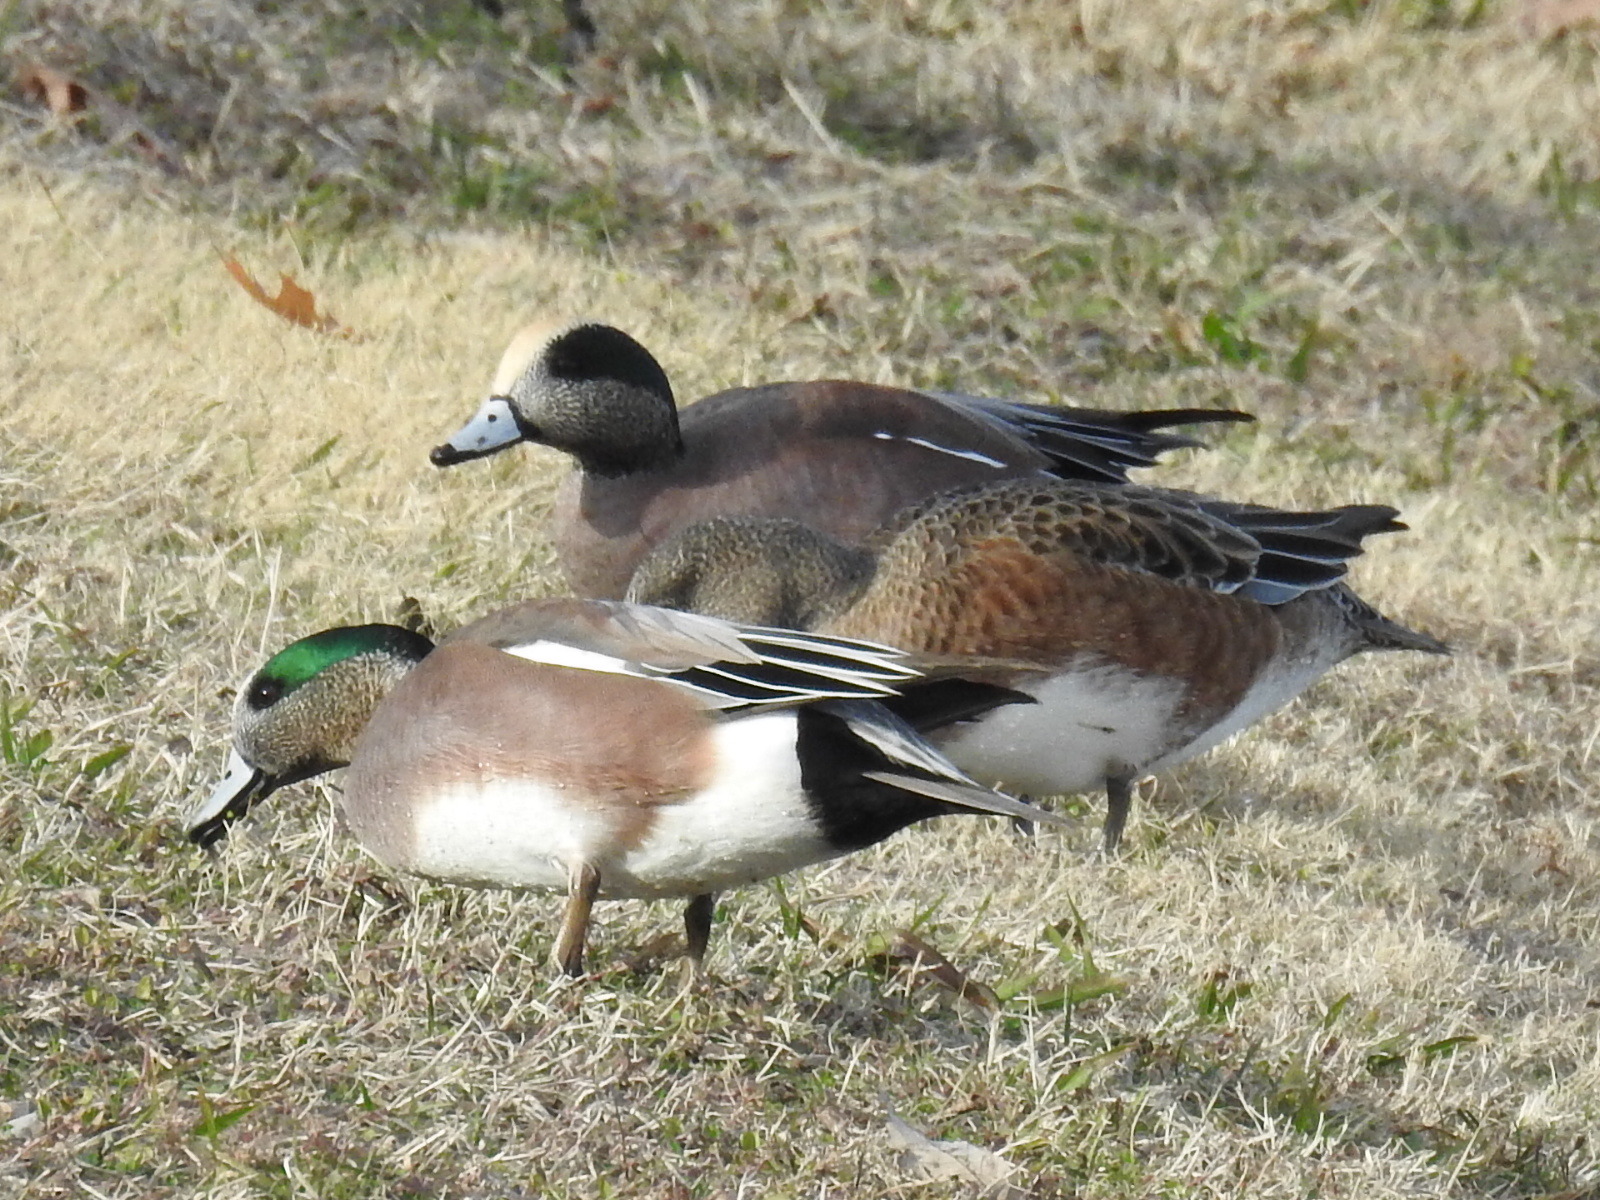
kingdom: Animalia
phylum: Chordata
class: Aves
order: Anseriformes
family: Anatidae
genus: Mareca
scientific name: Mareca americana
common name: American wigeon
